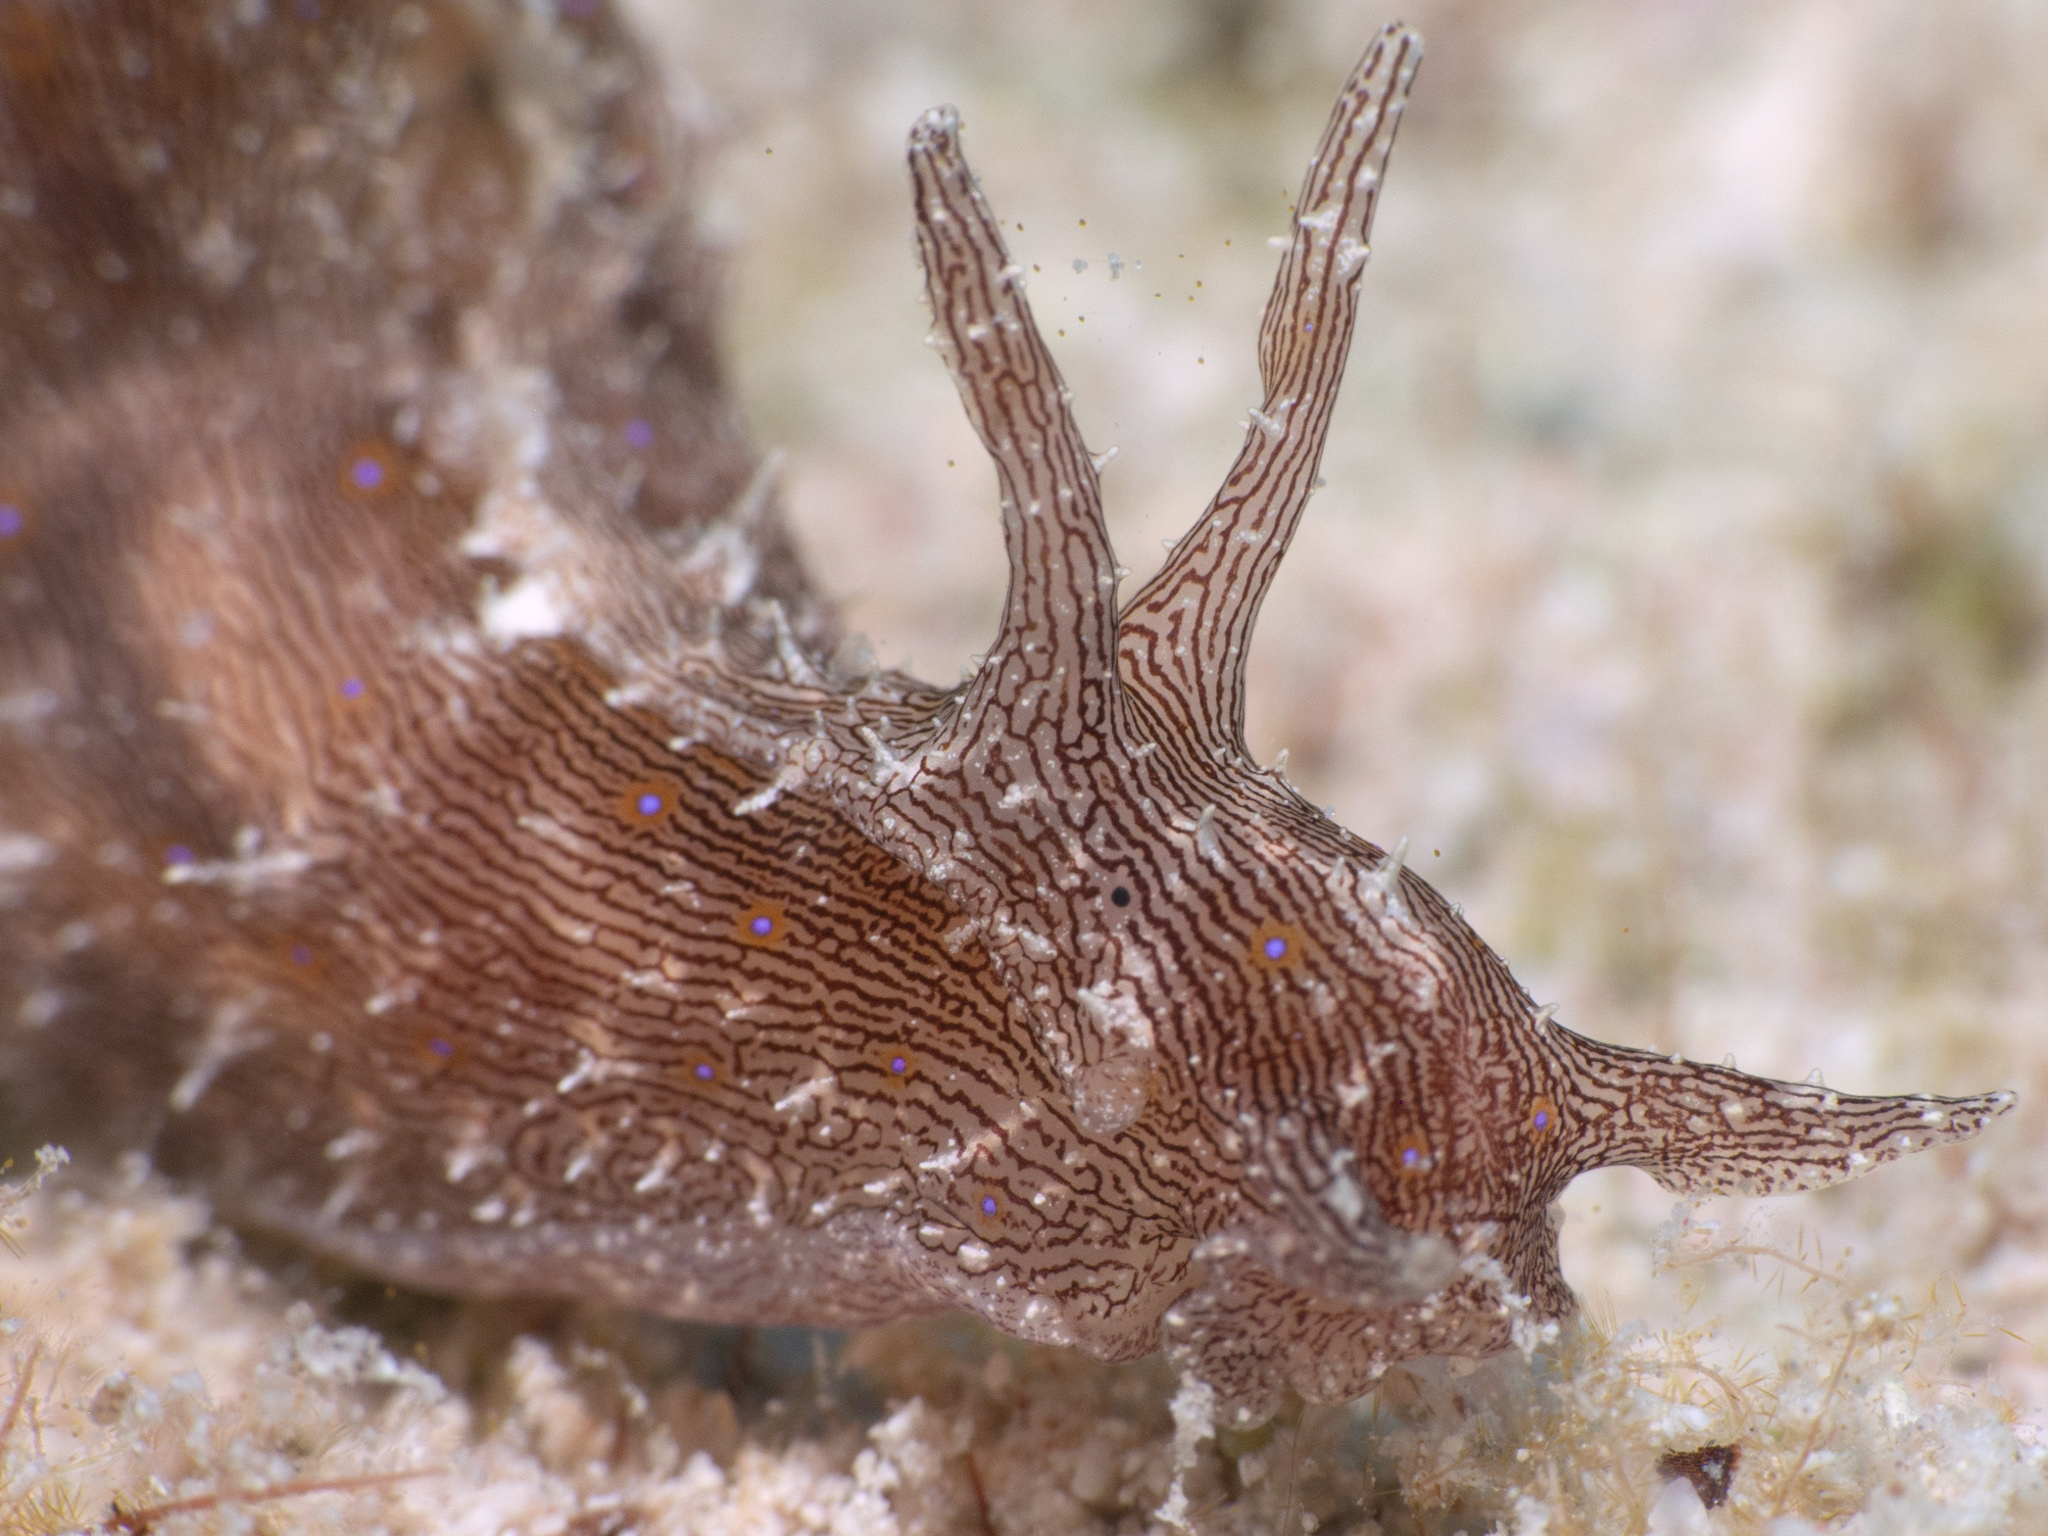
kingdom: Animalia
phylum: Mollusca
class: Gastropoda
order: Aplysiida
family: Aplysiidae
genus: Stylocheilus
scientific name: Stylocheilus polyomma
